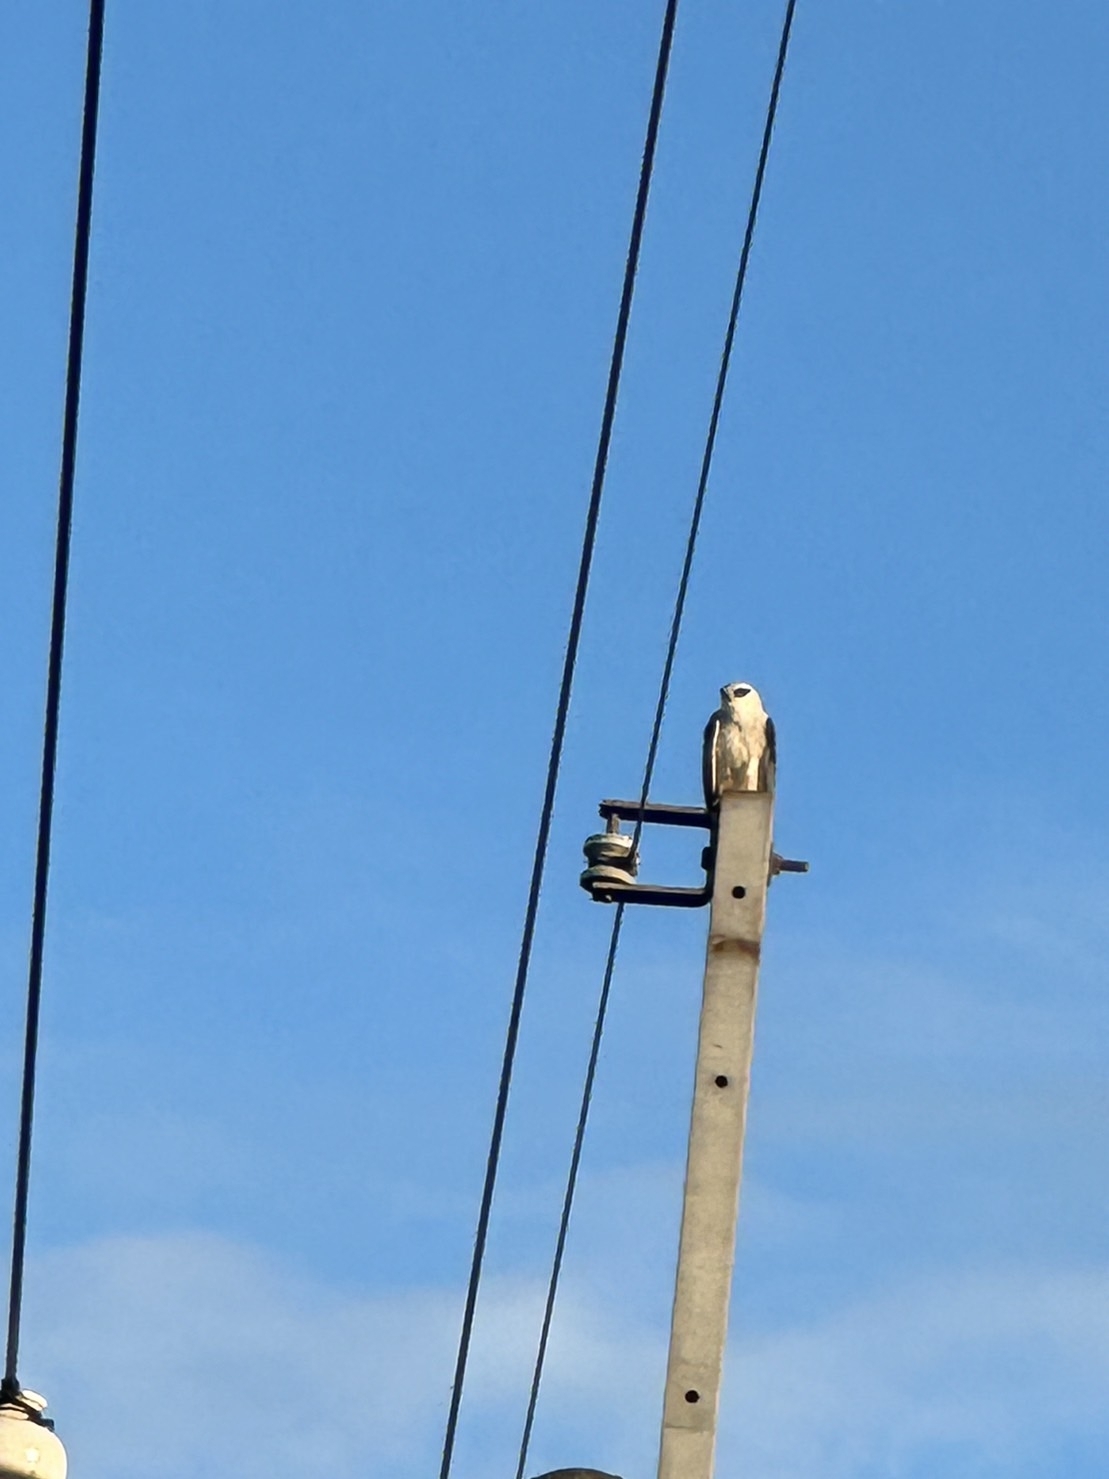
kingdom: Animalia
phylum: Chordata
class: Aves
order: Accipitriformes
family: Accipitridae
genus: Elanus
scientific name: Elanus caeruleus
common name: Black-winged kite
